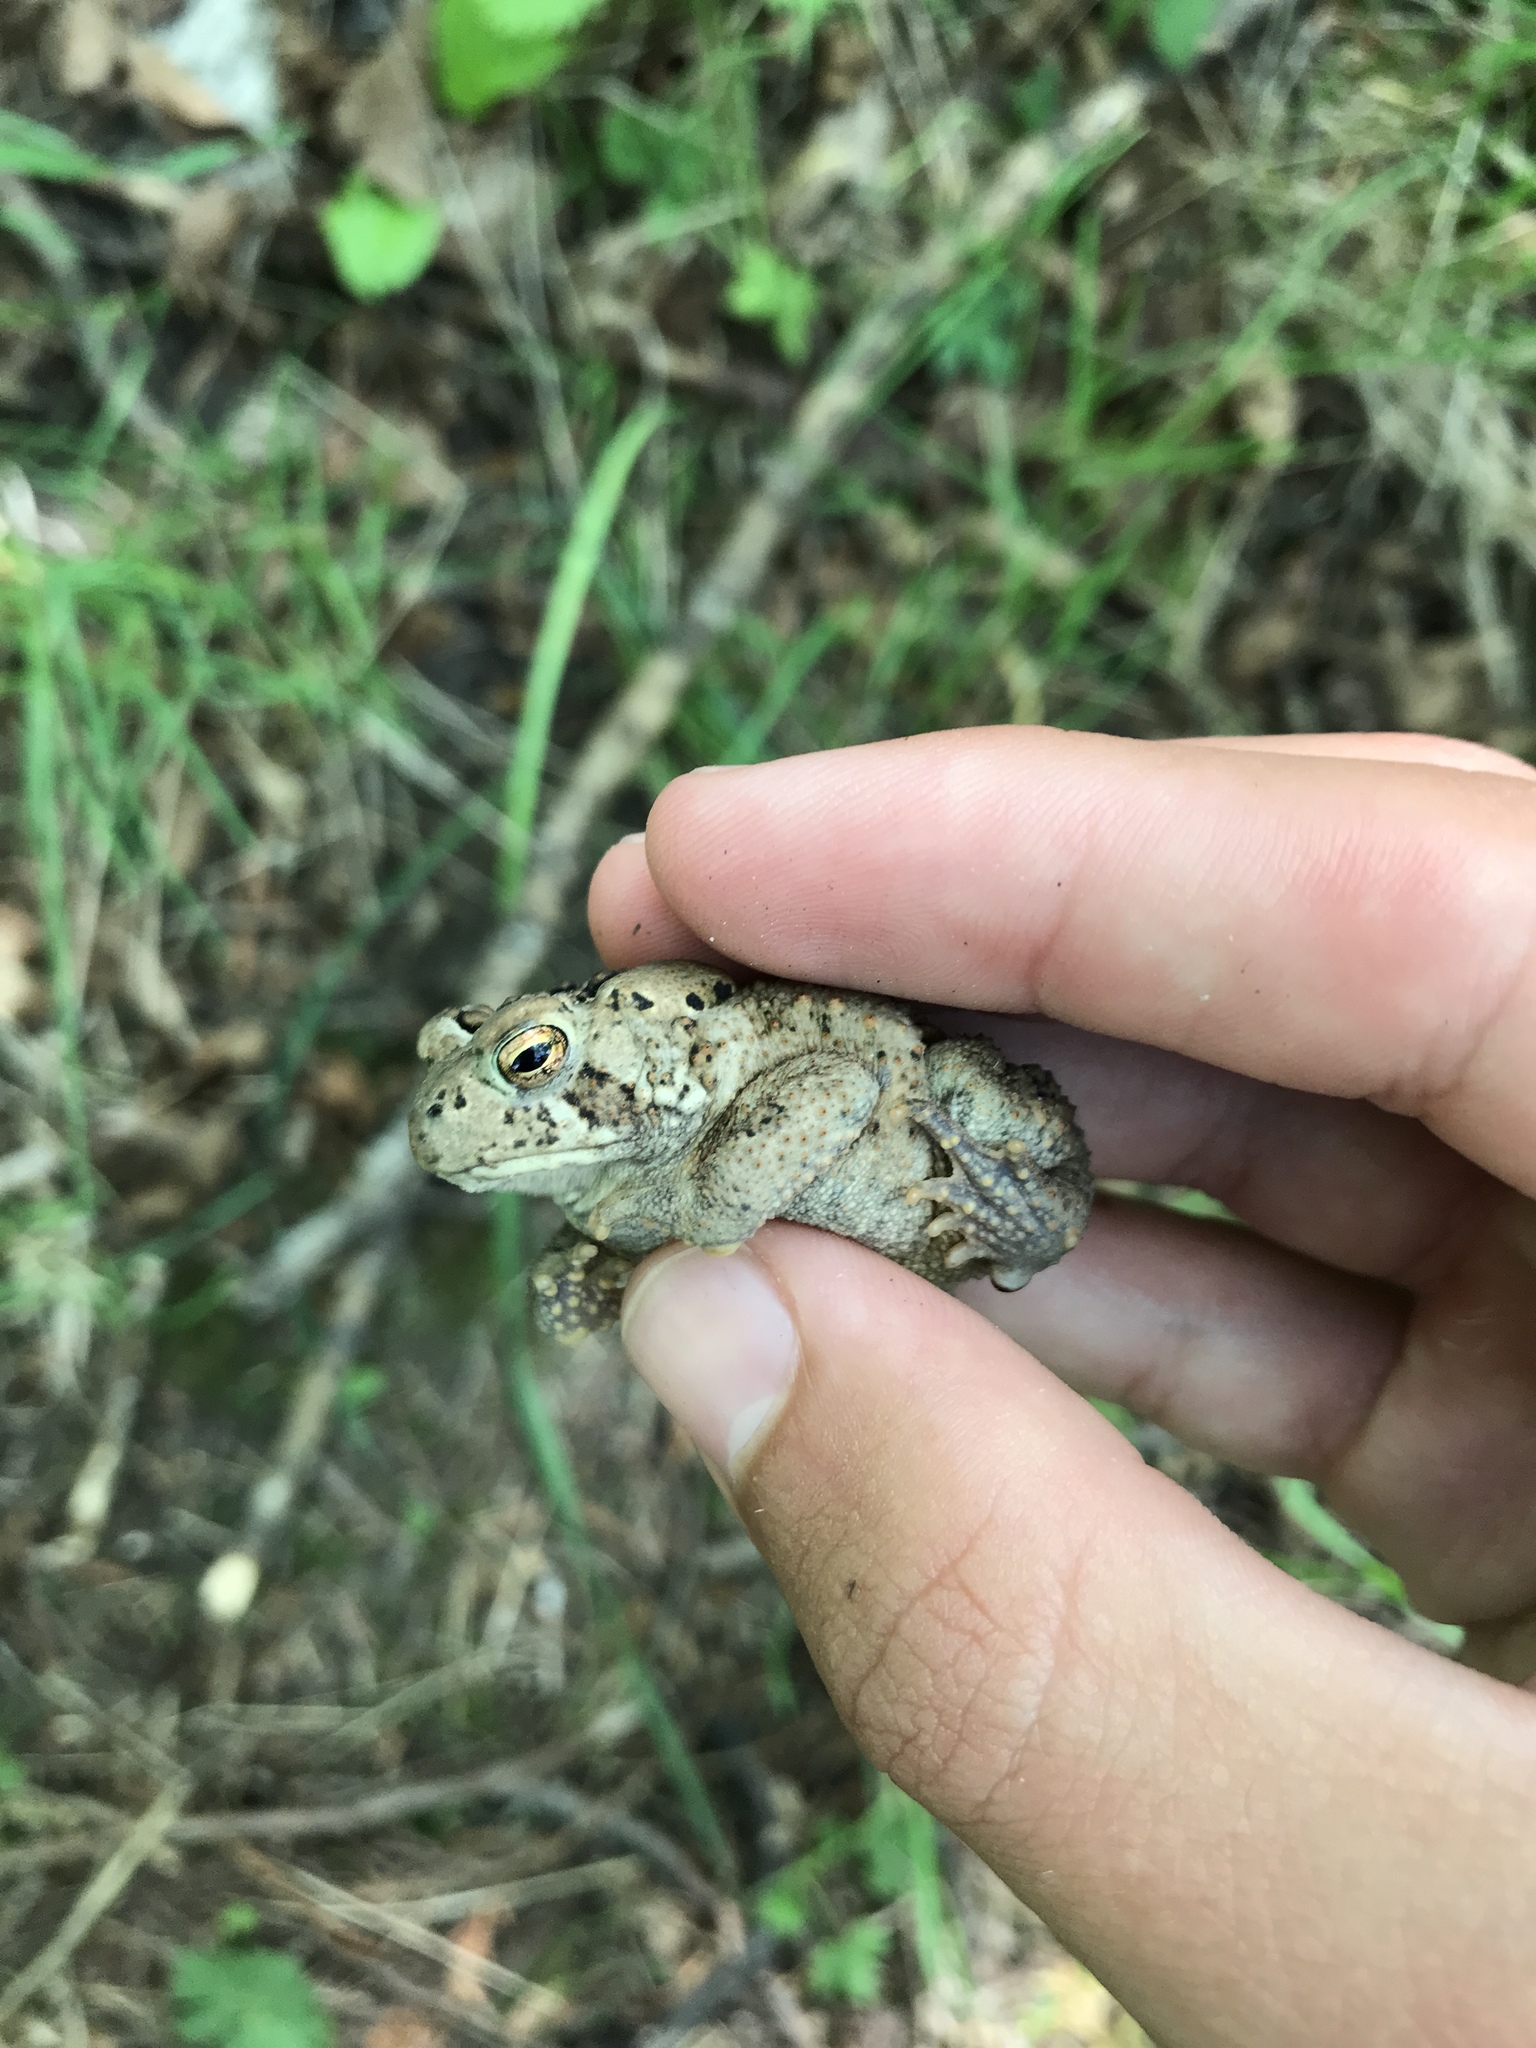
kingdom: Animalia
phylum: Chordata
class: Amphibia
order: Anura
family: Bufonidae
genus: Anaxyrus
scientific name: Anaxyrus americanus
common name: American toad
